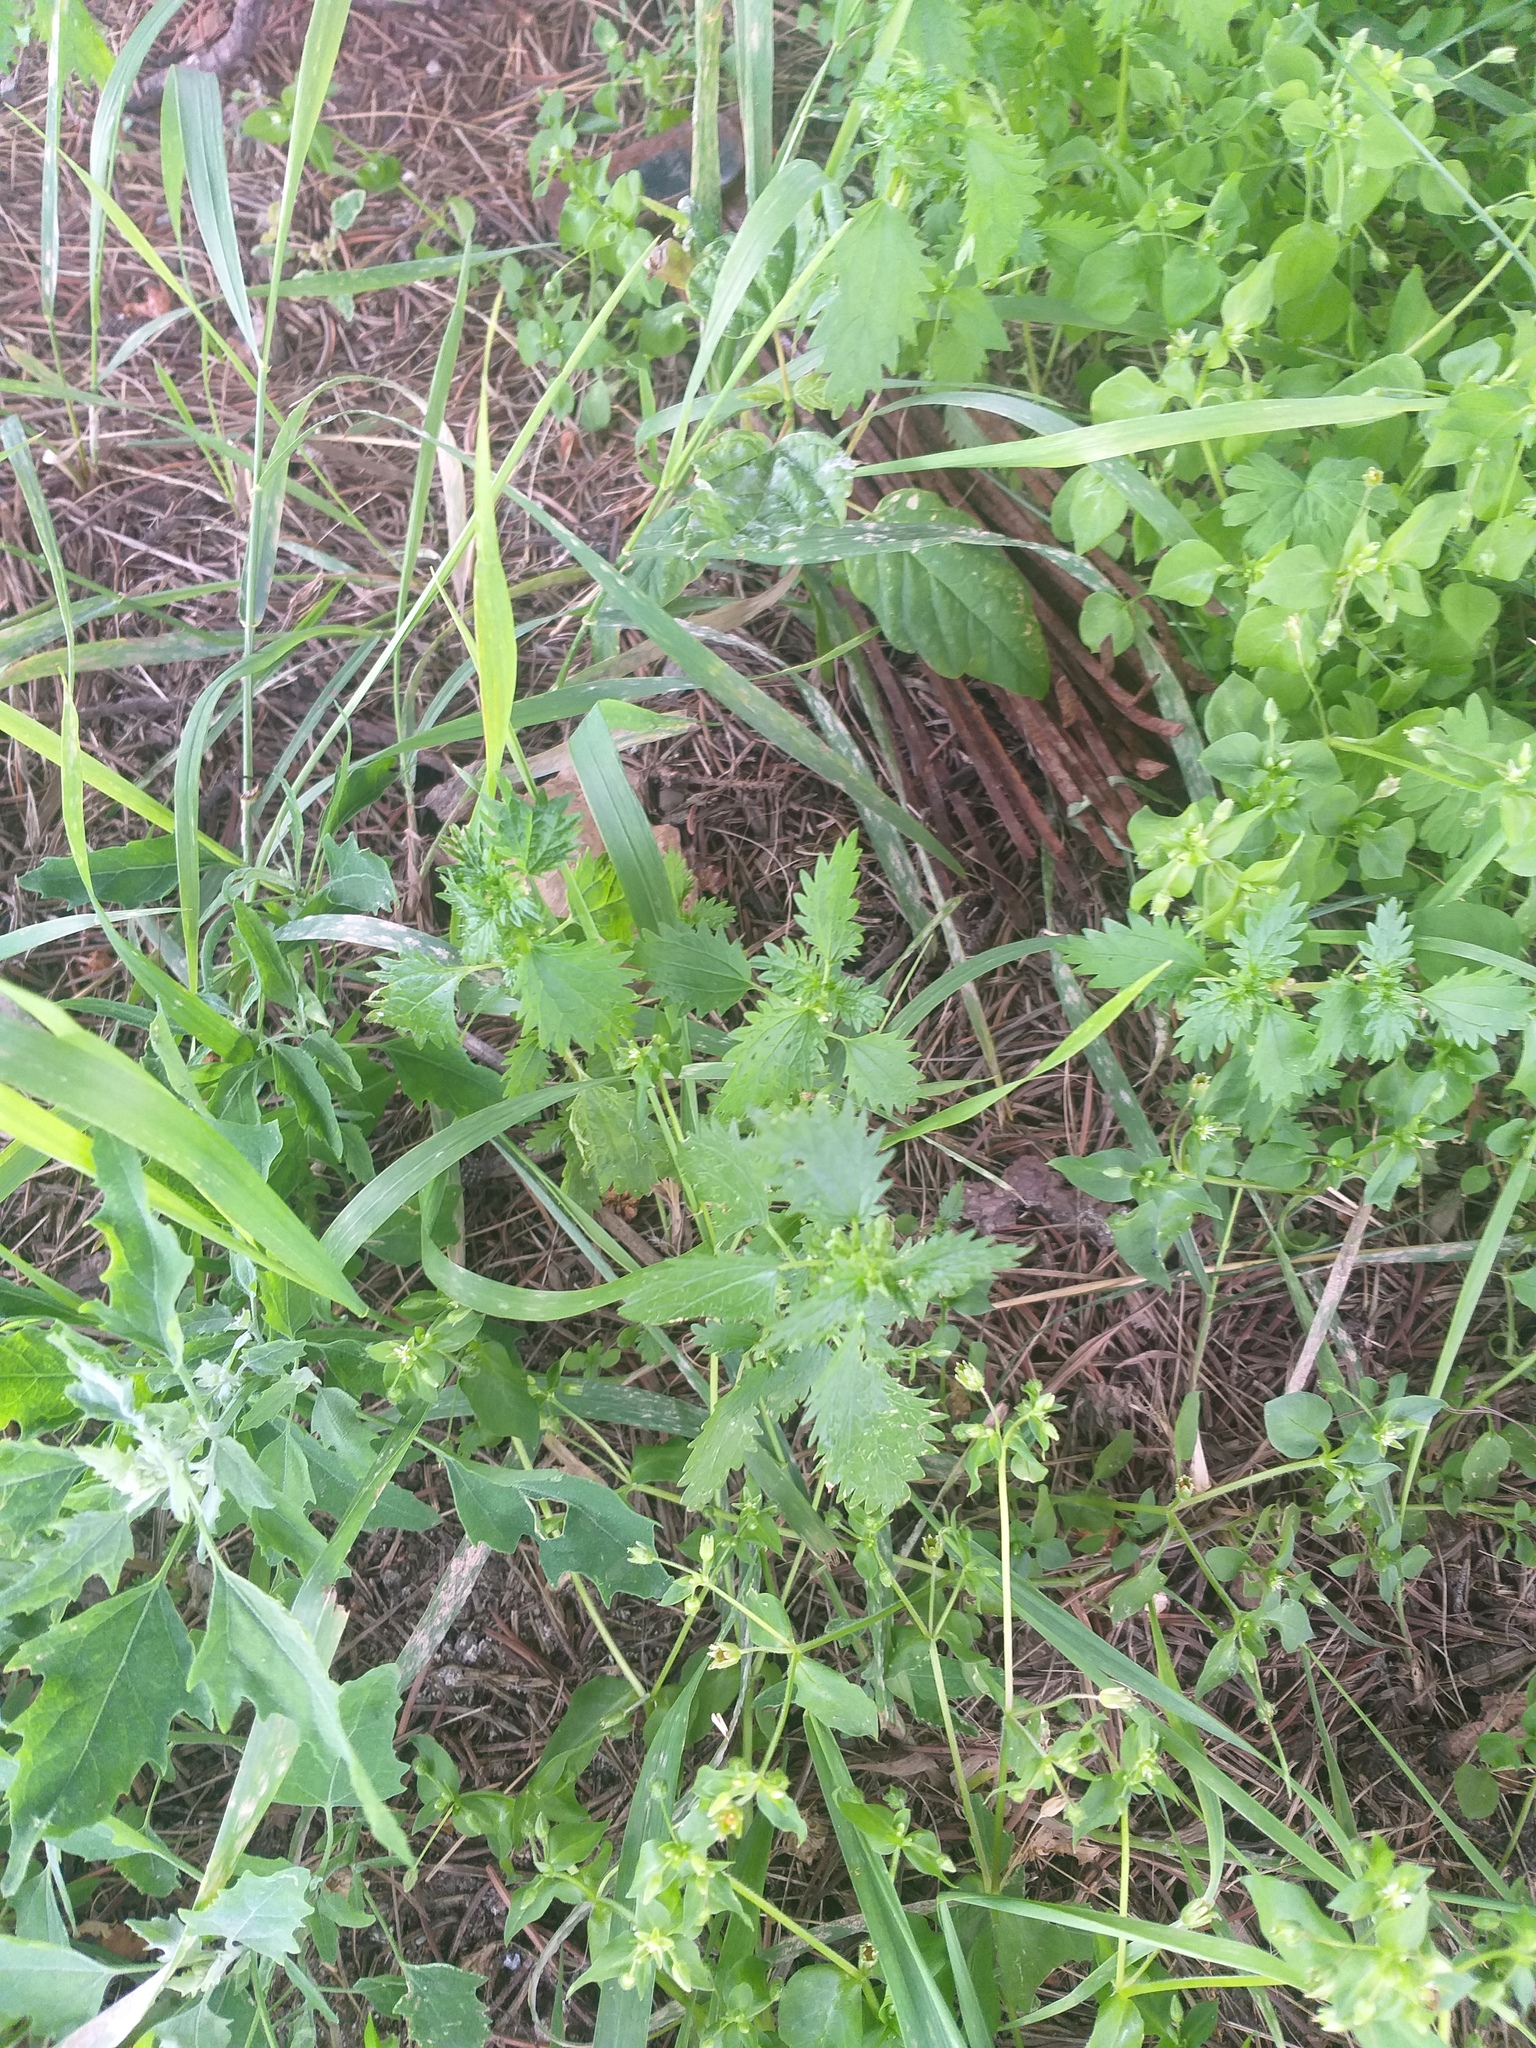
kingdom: Plantae
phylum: Tracheophyta
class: Magnoliopsida
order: Rosales
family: Urticaceae
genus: Urtica
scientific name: Urtica urens
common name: Dwarf nettle
